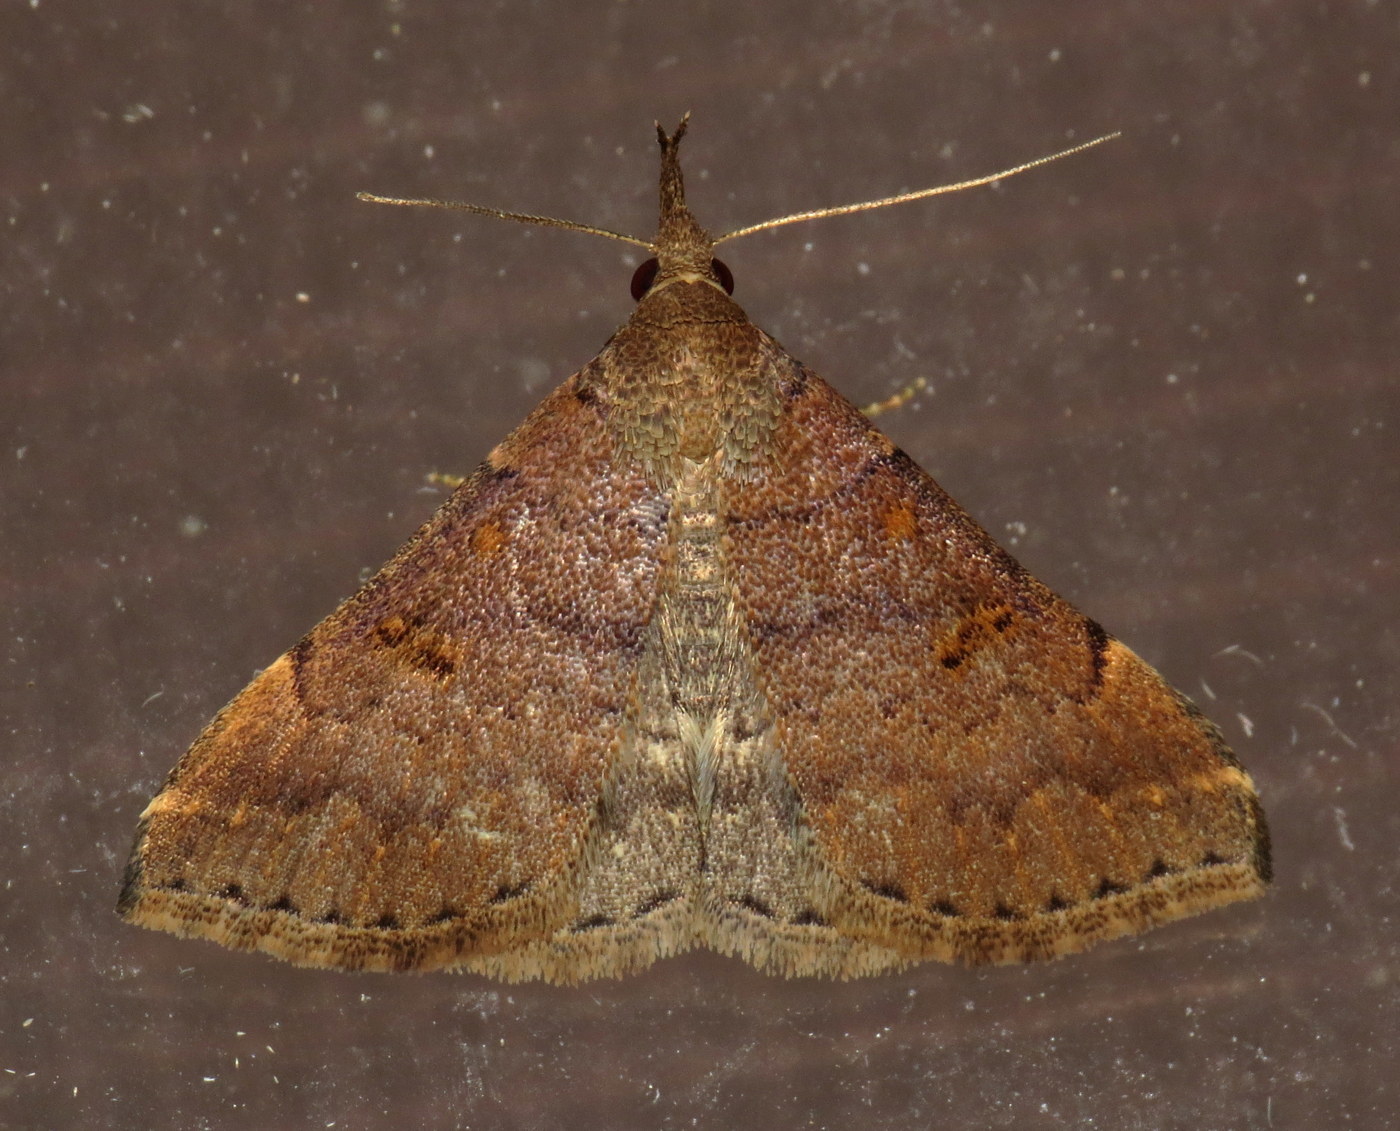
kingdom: Animalia
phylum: Arthropoda
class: Insecta
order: Lepidoptera
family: Erebidae
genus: Renia
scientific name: Renia factiosalis
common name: Sociable renia moth
